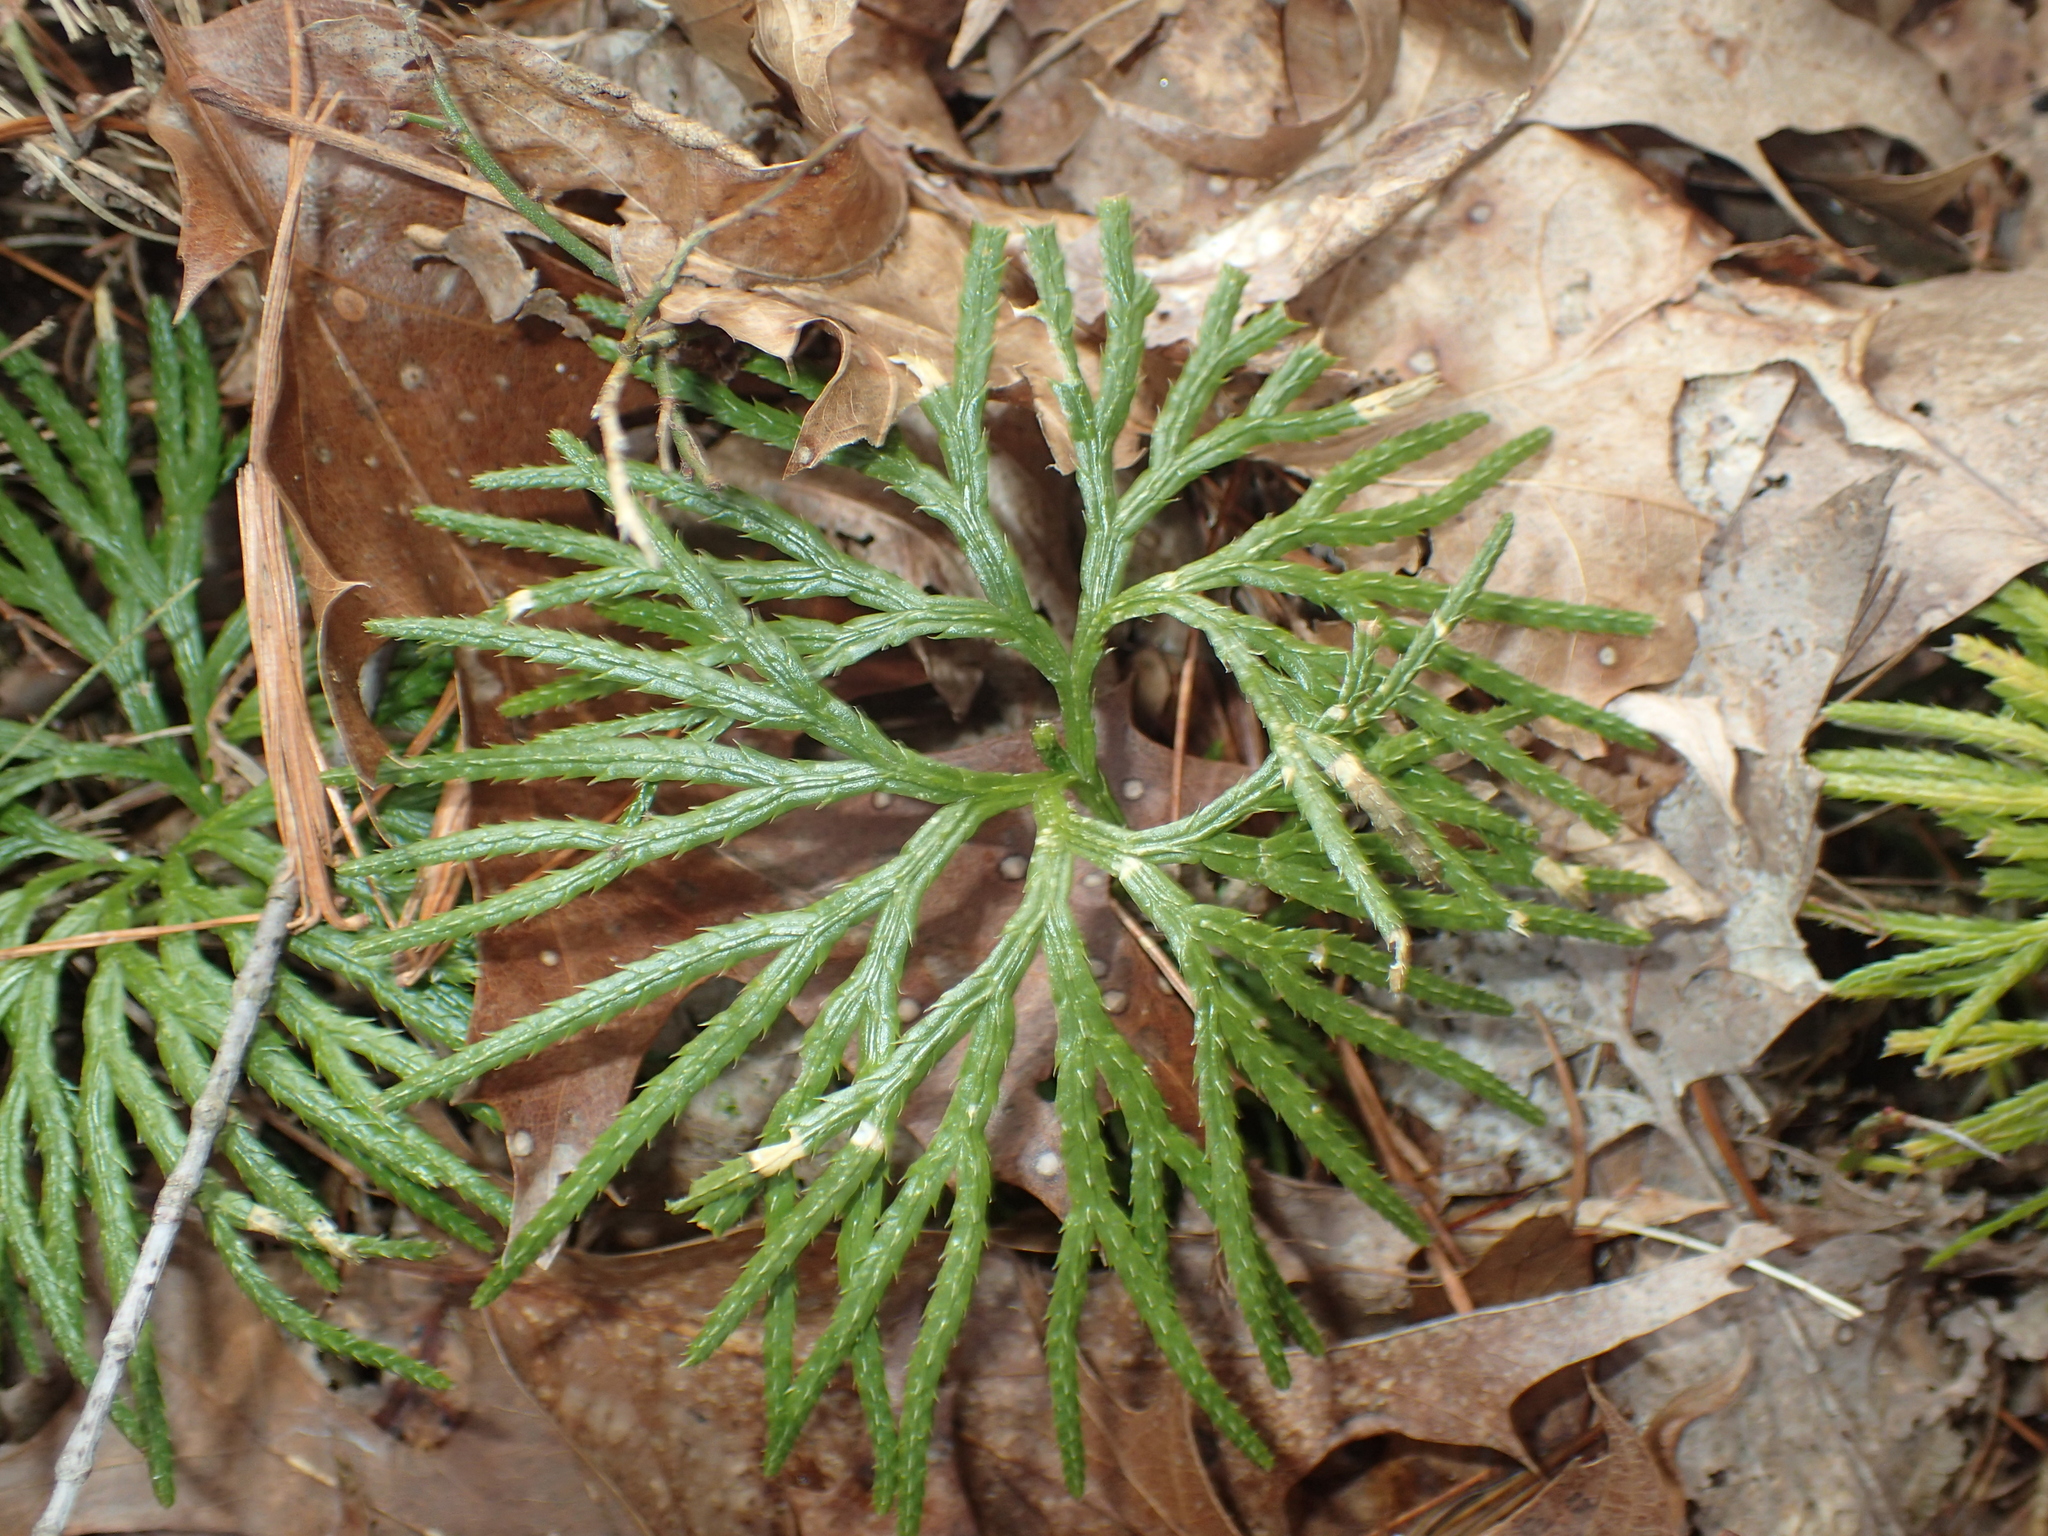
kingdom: Plantae
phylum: Tracheophyta
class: Lycopodiopsida
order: Lycopodiales
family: Lycopodiaceae
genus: Diphasiastrum
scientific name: Diphasiastrum digitatum
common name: Southern running-pine
